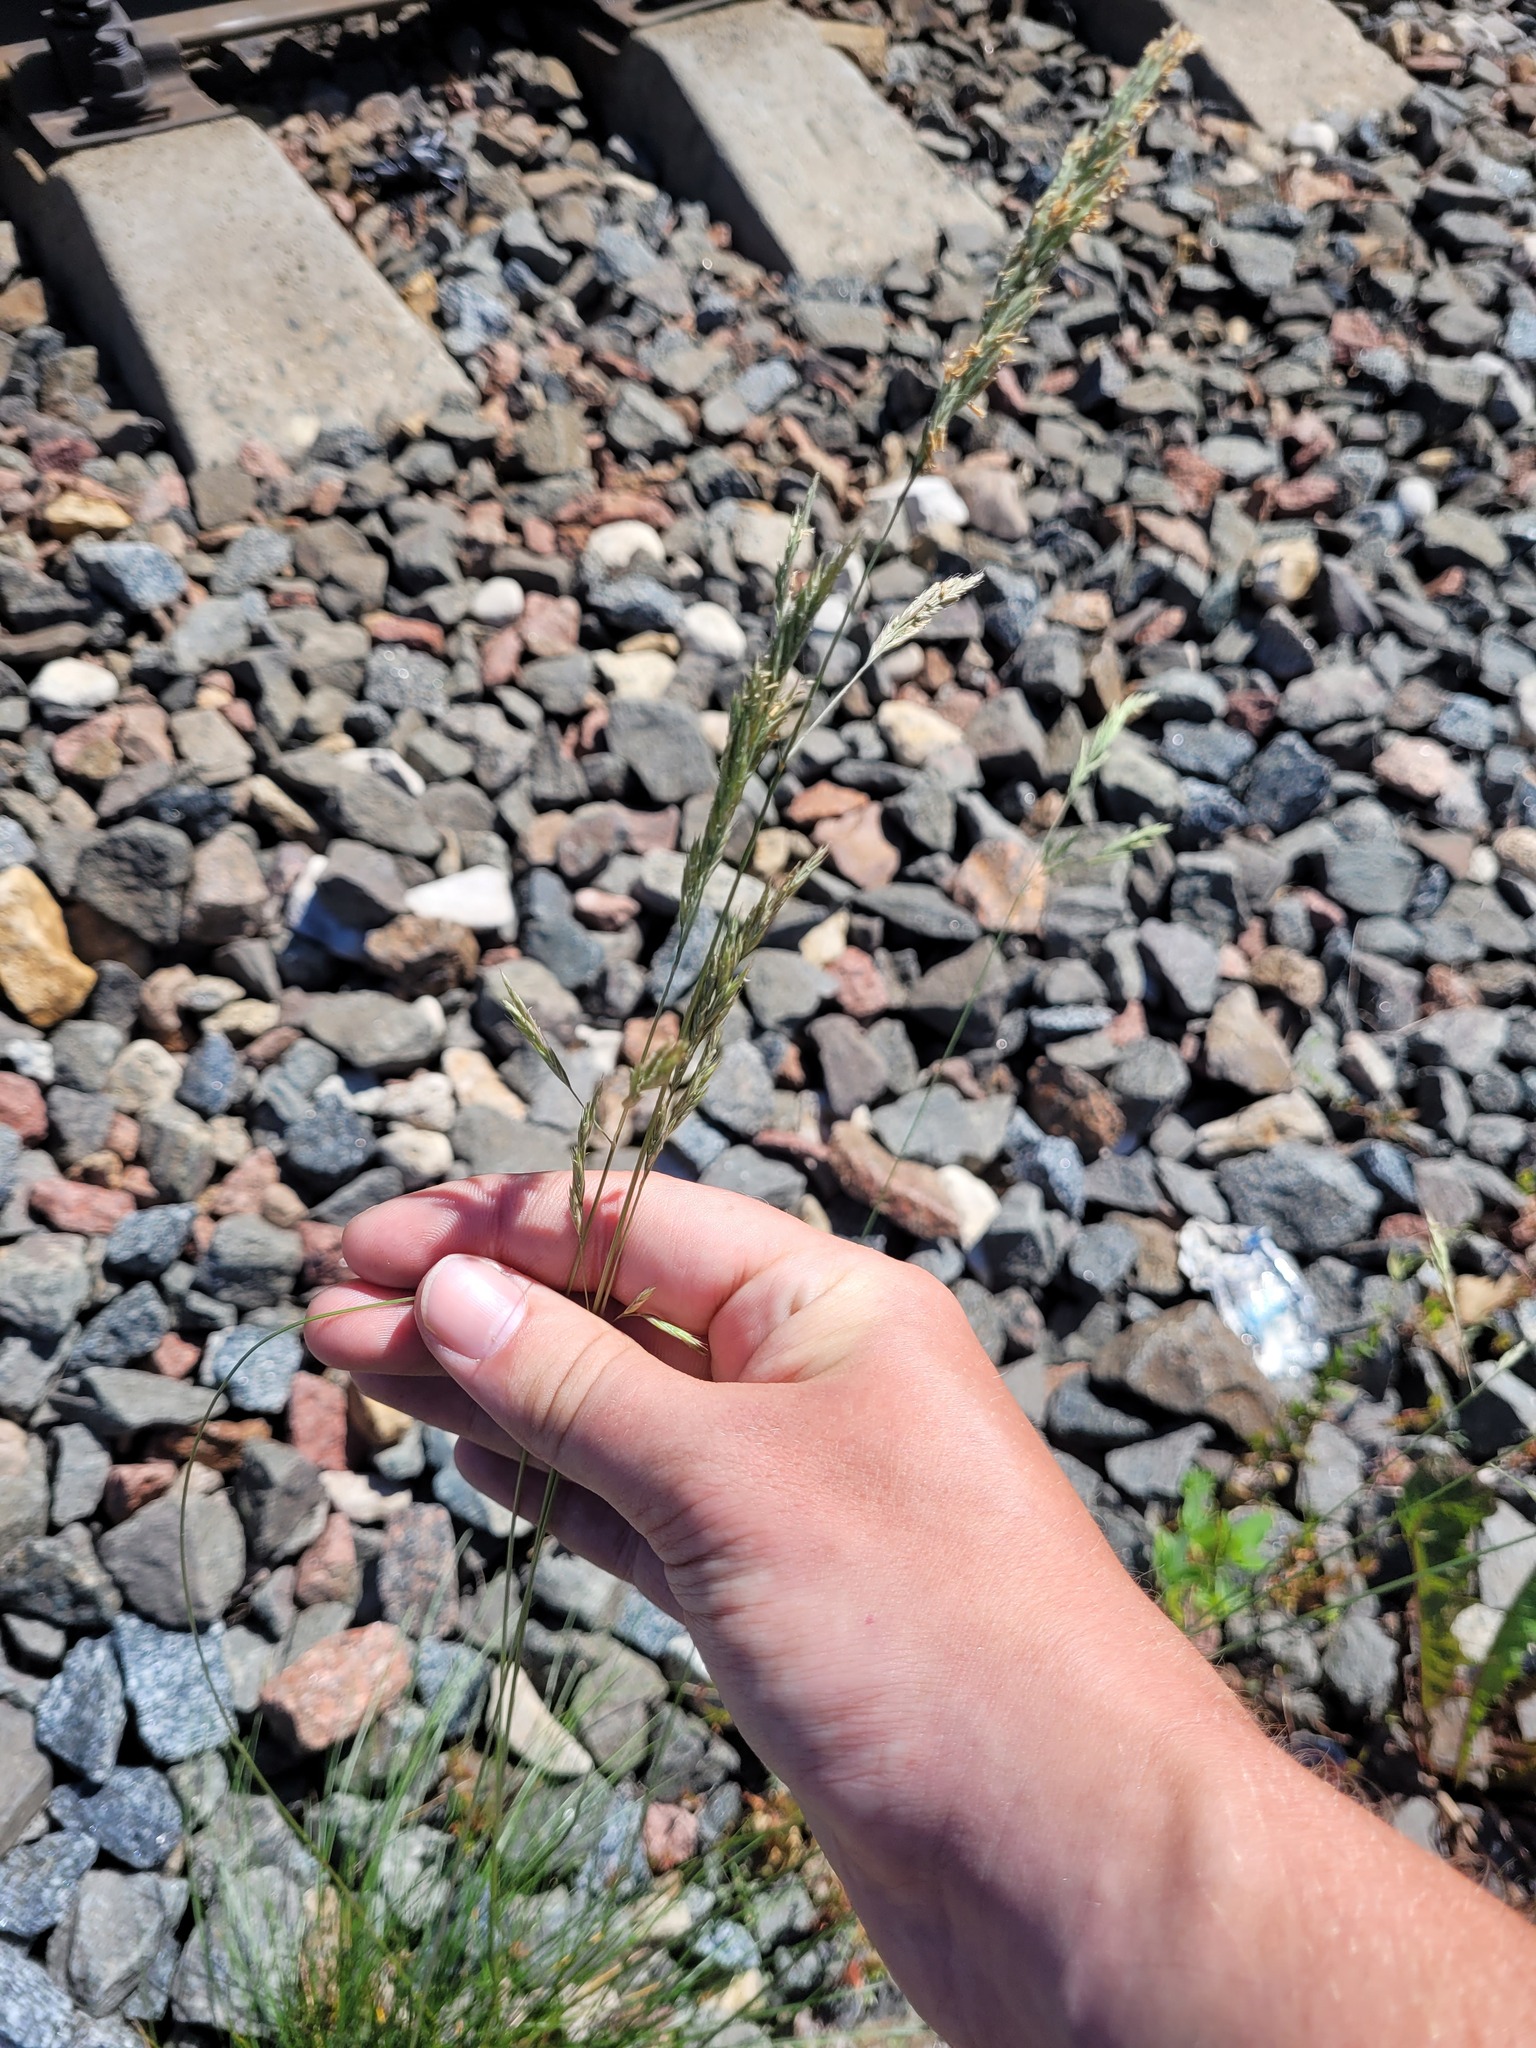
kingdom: Plantae
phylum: Tracheophyta
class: Liliopsida
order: Poales
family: Poaceae
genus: Festuca
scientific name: Festuca rubra
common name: Red fescue
